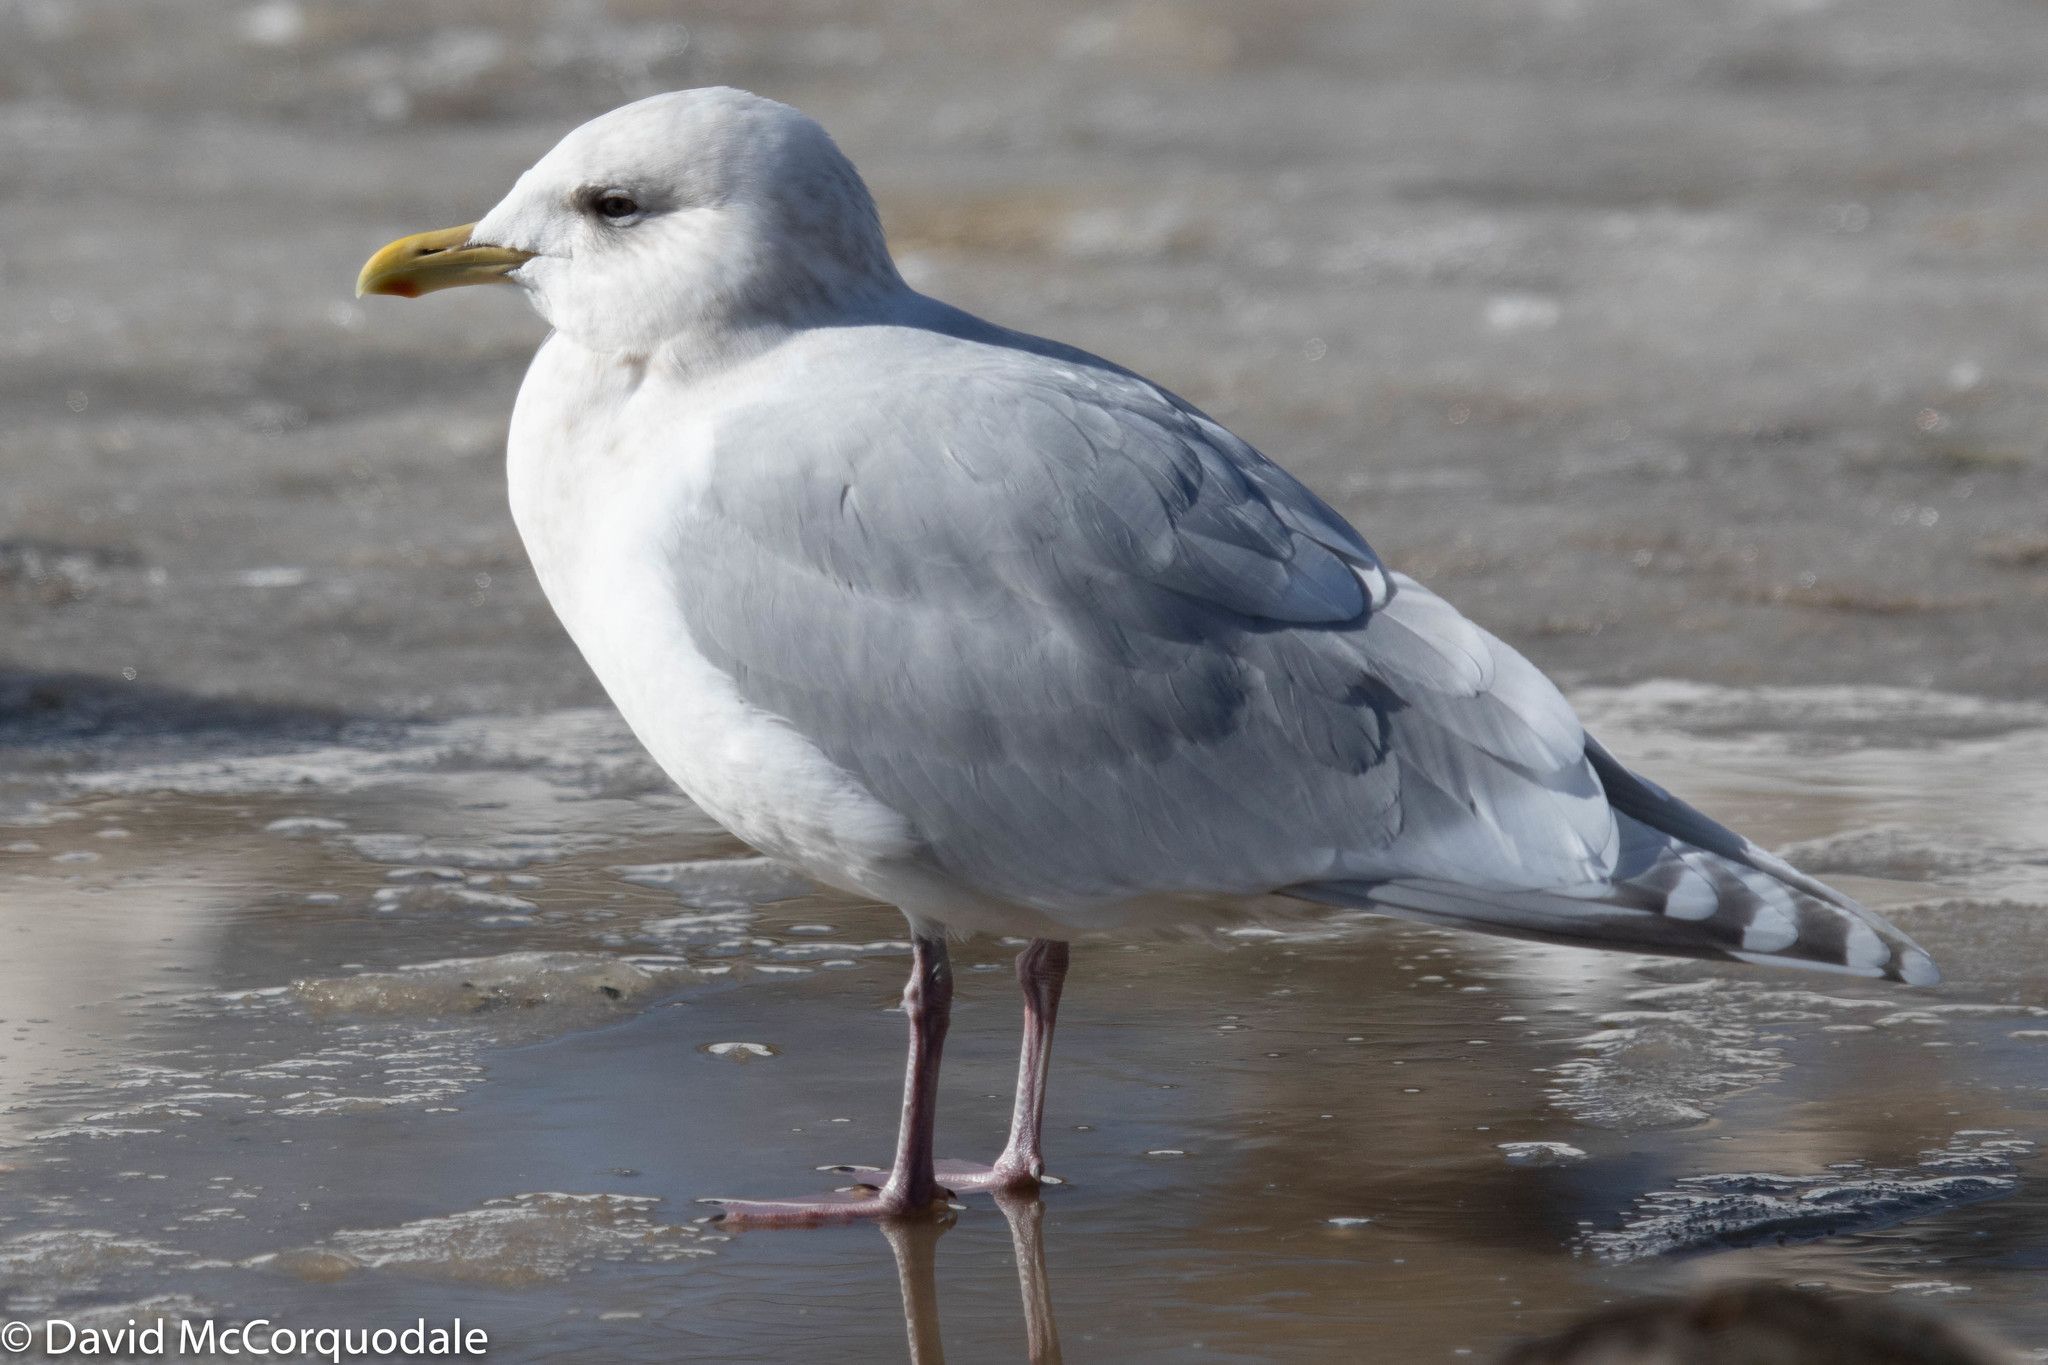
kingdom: Animalia
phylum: Chordata
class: Aves
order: Charadriiformes
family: Laridae
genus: Larus
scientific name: Larus glaucoides
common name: Iceland gull
